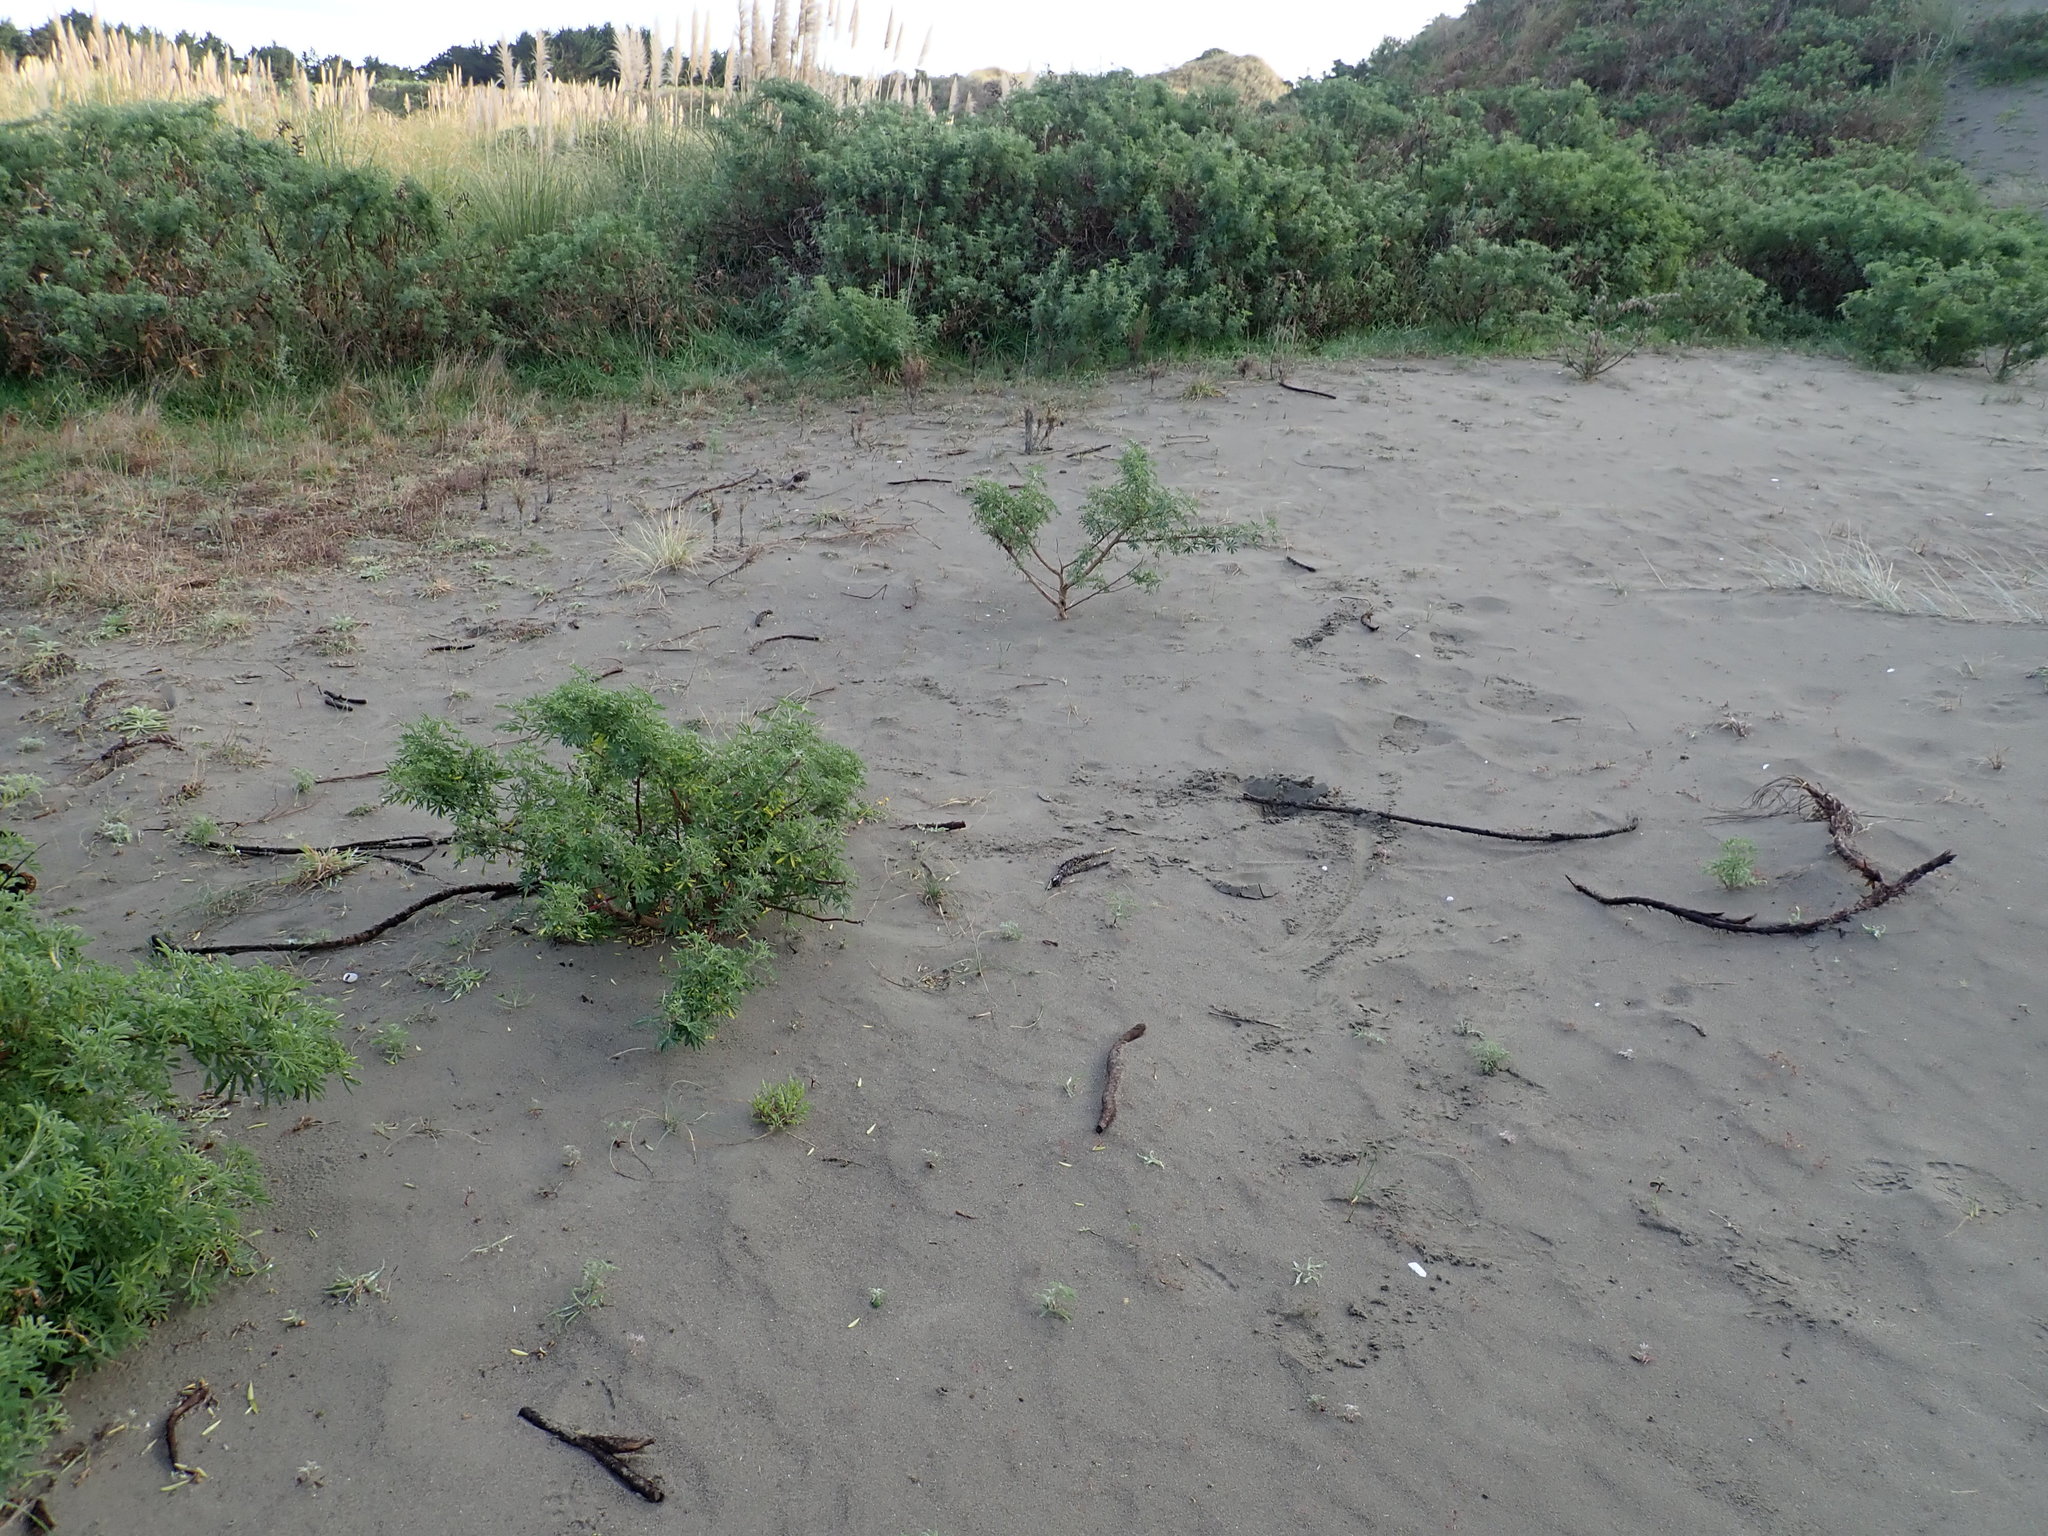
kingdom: Plantae
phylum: Tracheophyta
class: Liliopsida
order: Poales
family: Cyperaceae
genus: Carex
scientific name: Carex pumila
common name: Dwarf sedge
